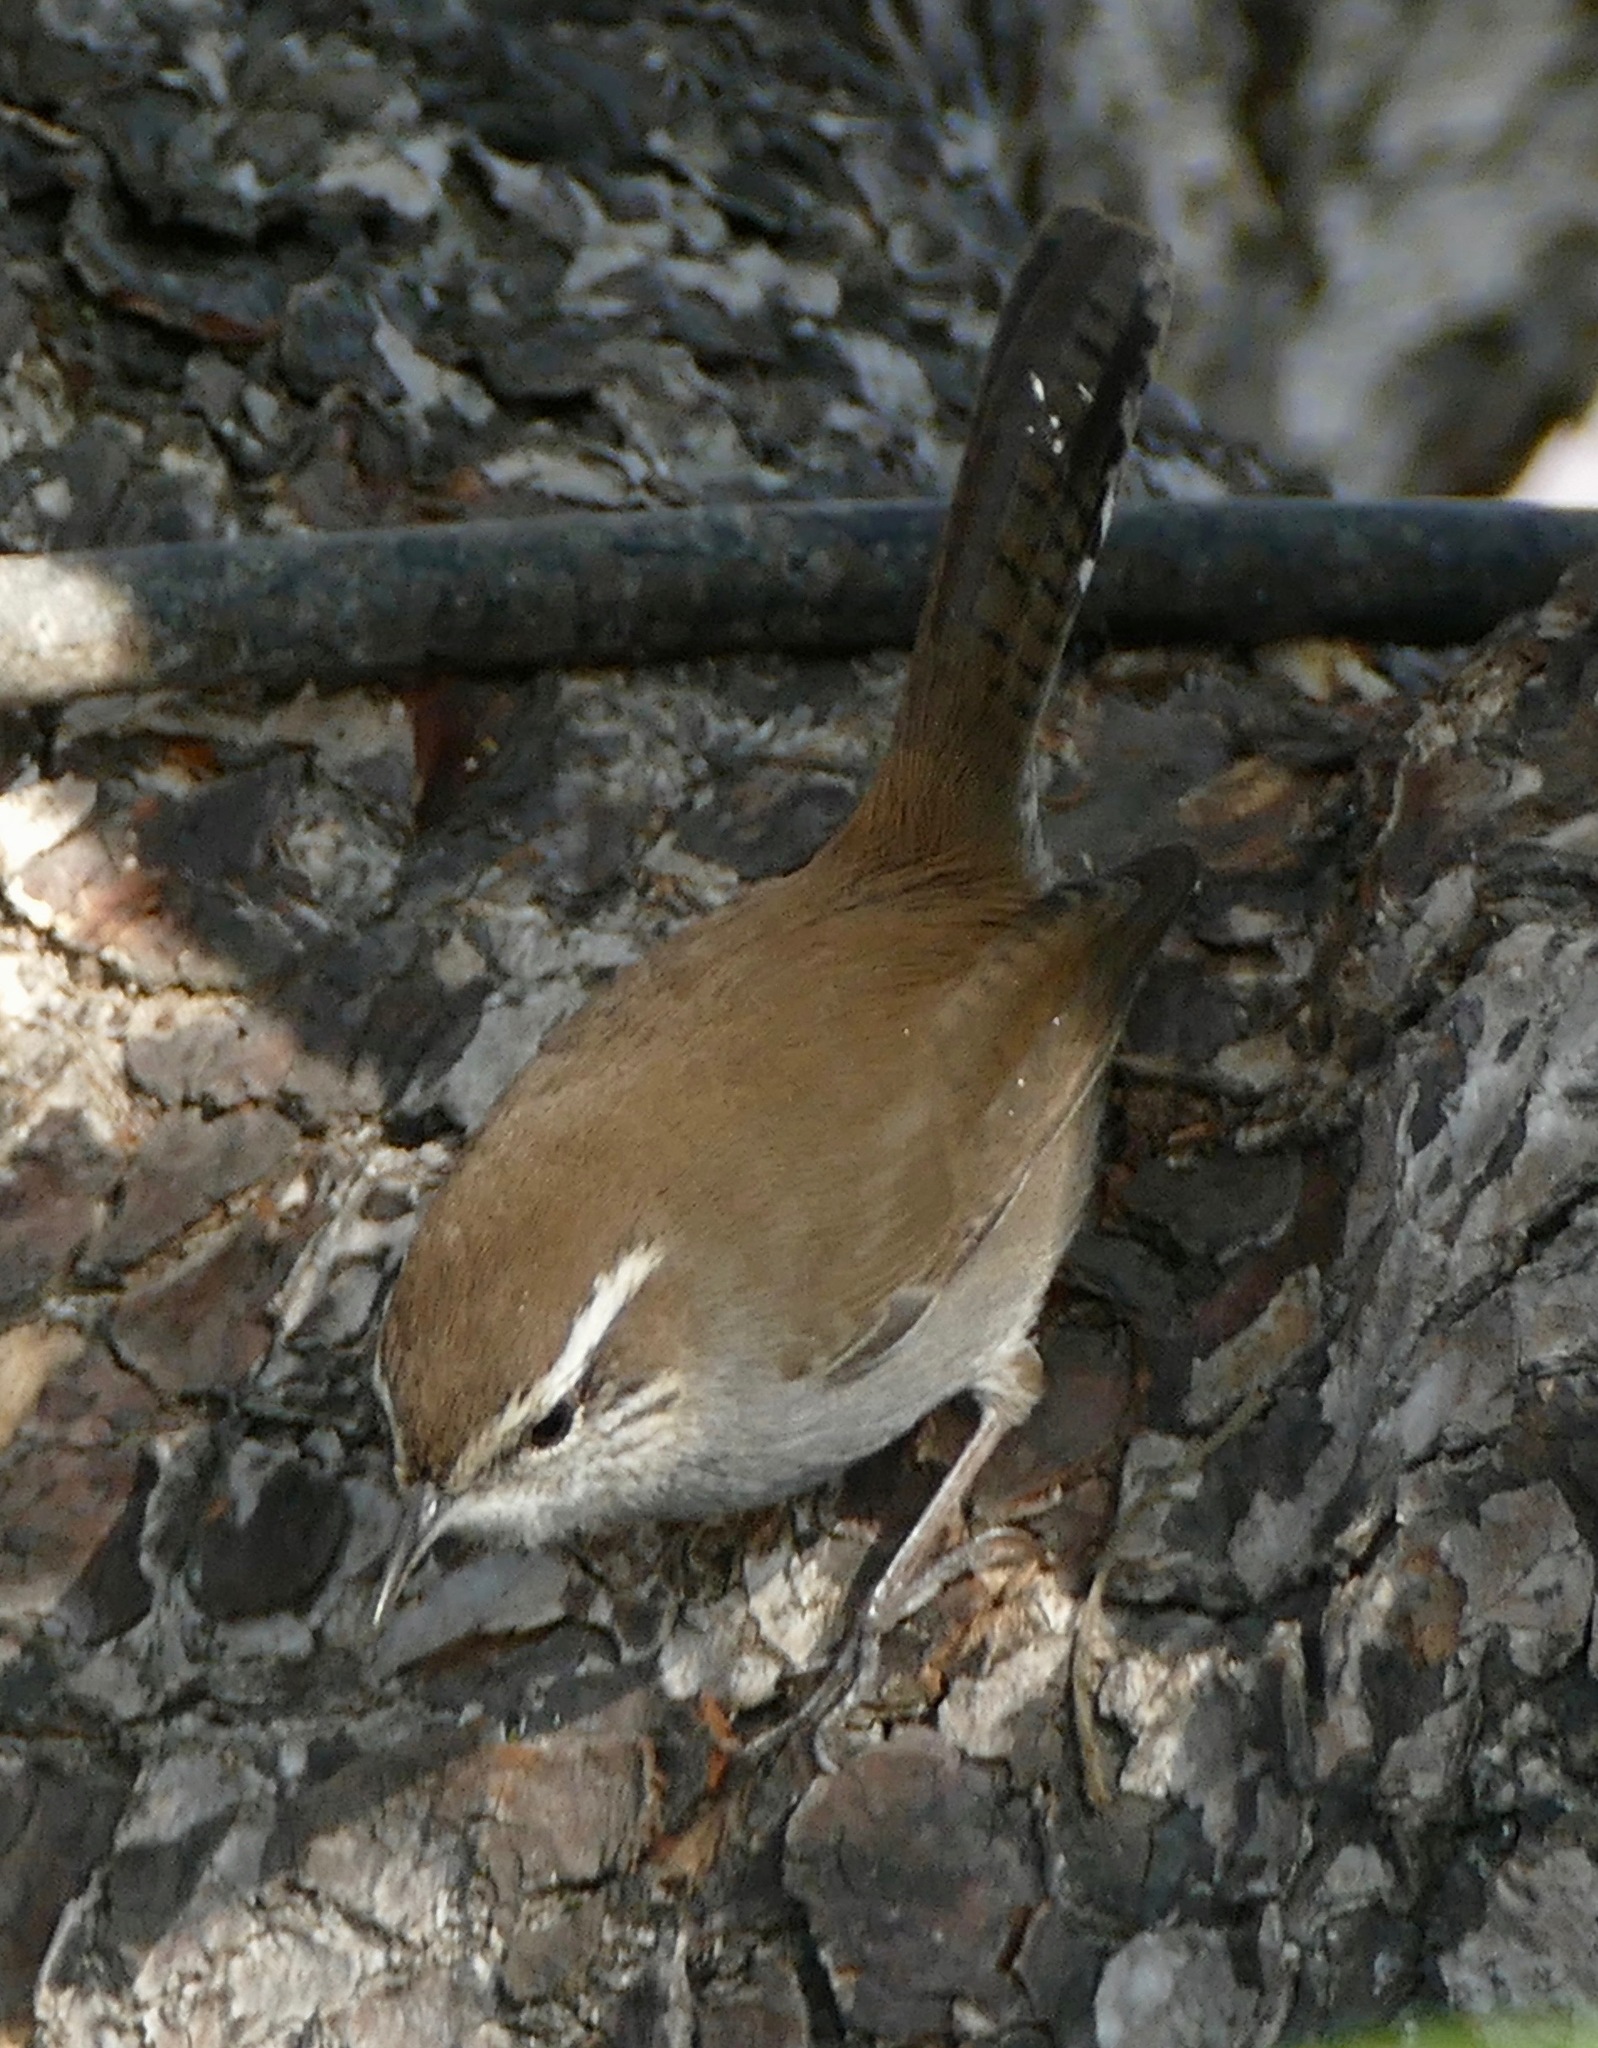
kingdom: Animalia
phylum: Chordata
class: Aves
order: Passeriformes
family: Troglodytidae
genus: Thryomanes
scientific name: Thryomanes bewickii
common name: Bewick's wren
